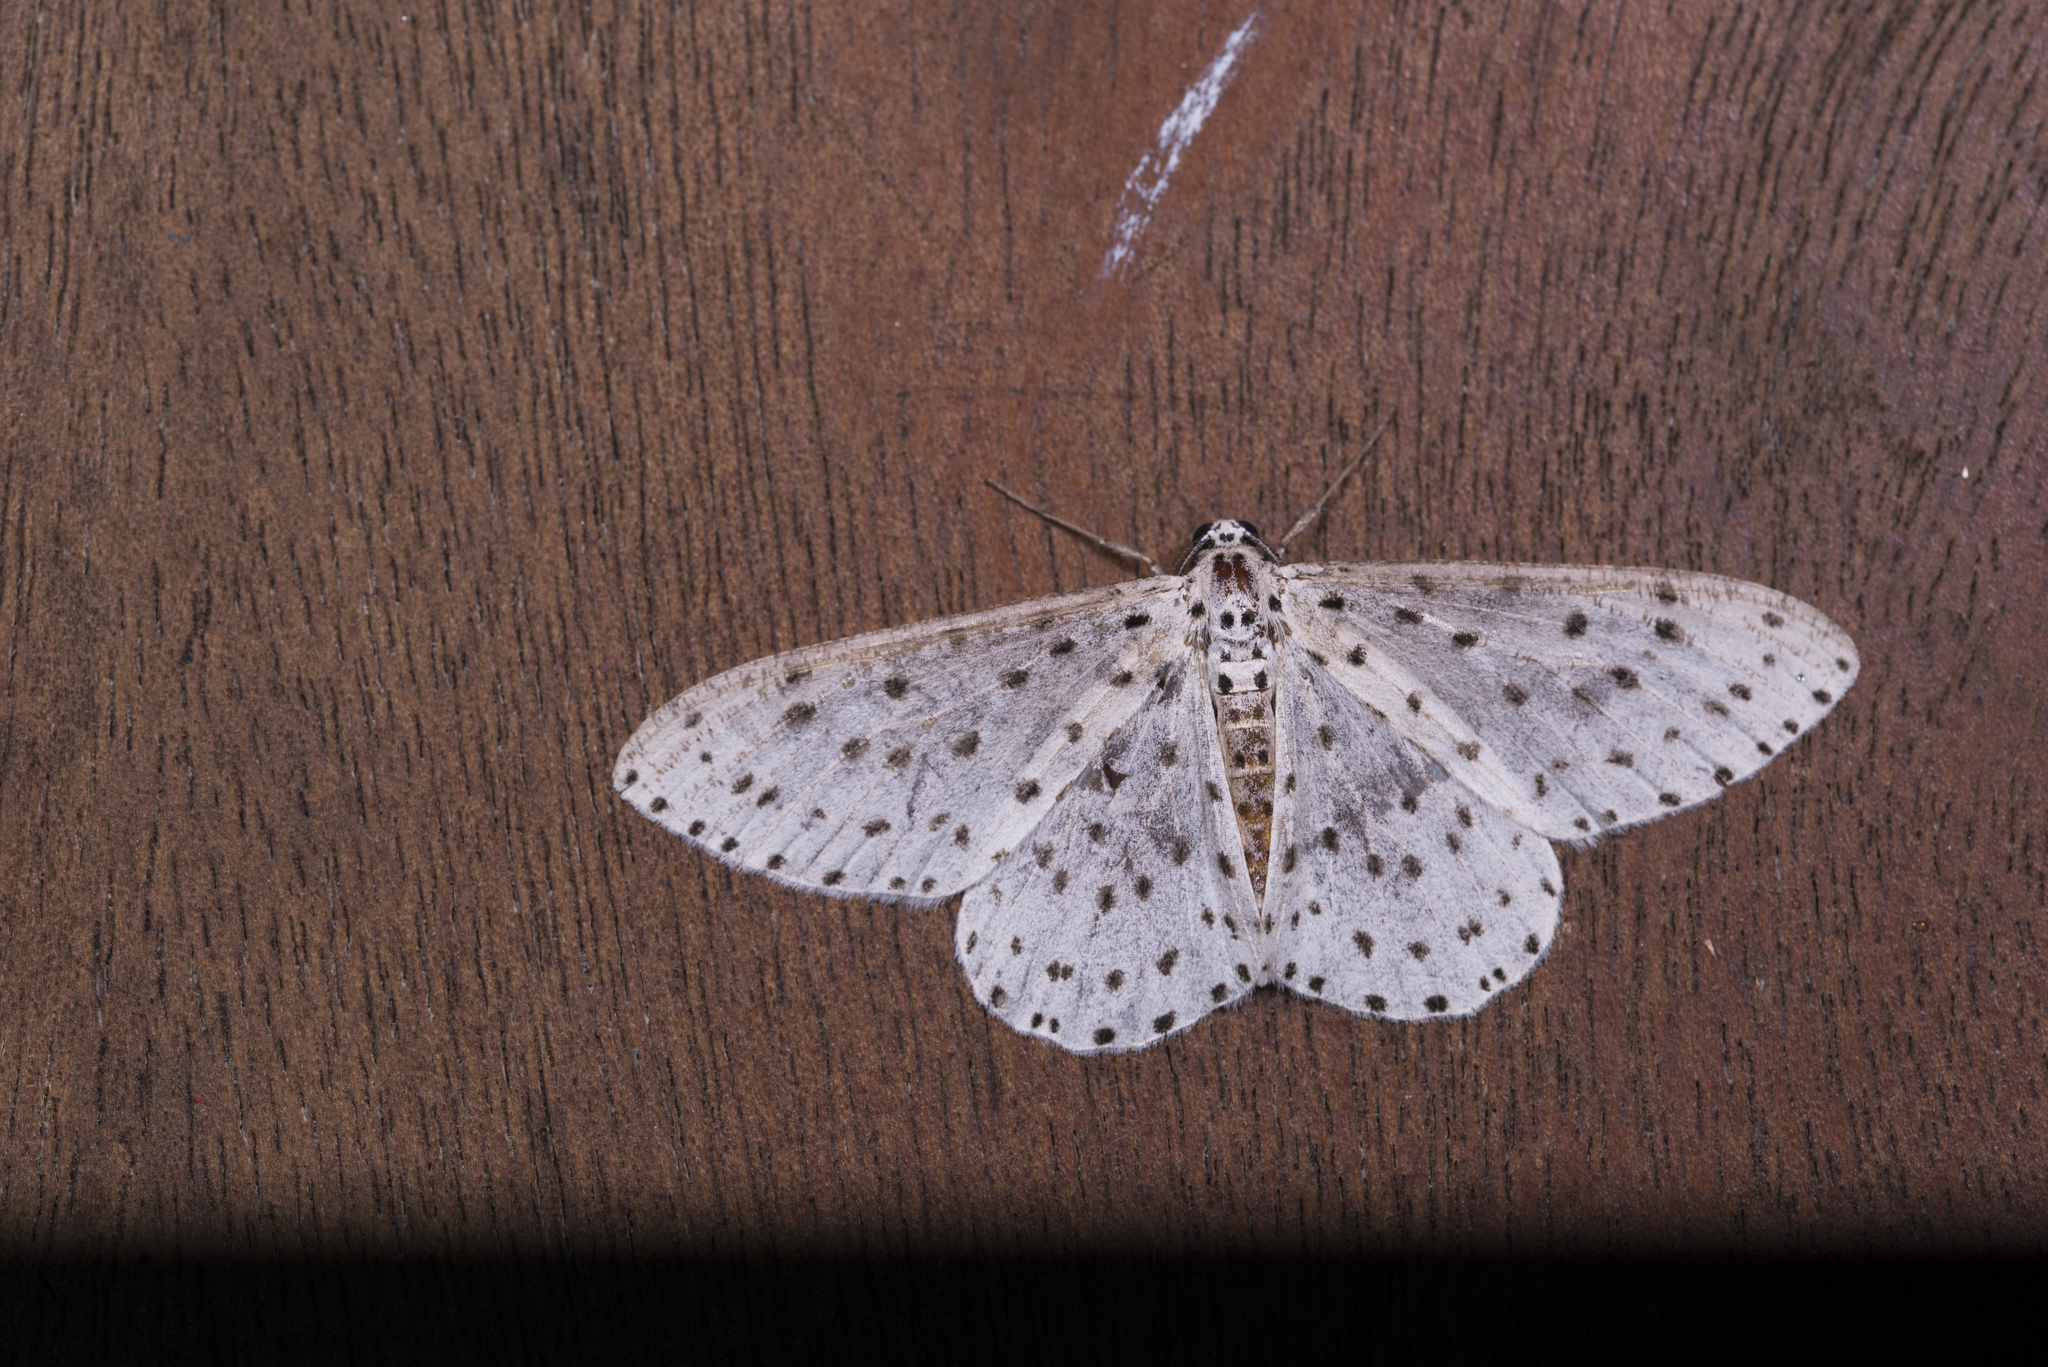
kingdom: Animalia
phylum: Arthropoda
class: Insecta
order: Lepidoptera
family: Geometridae
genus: Xenoplia
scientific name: Xenoplia trivialis
